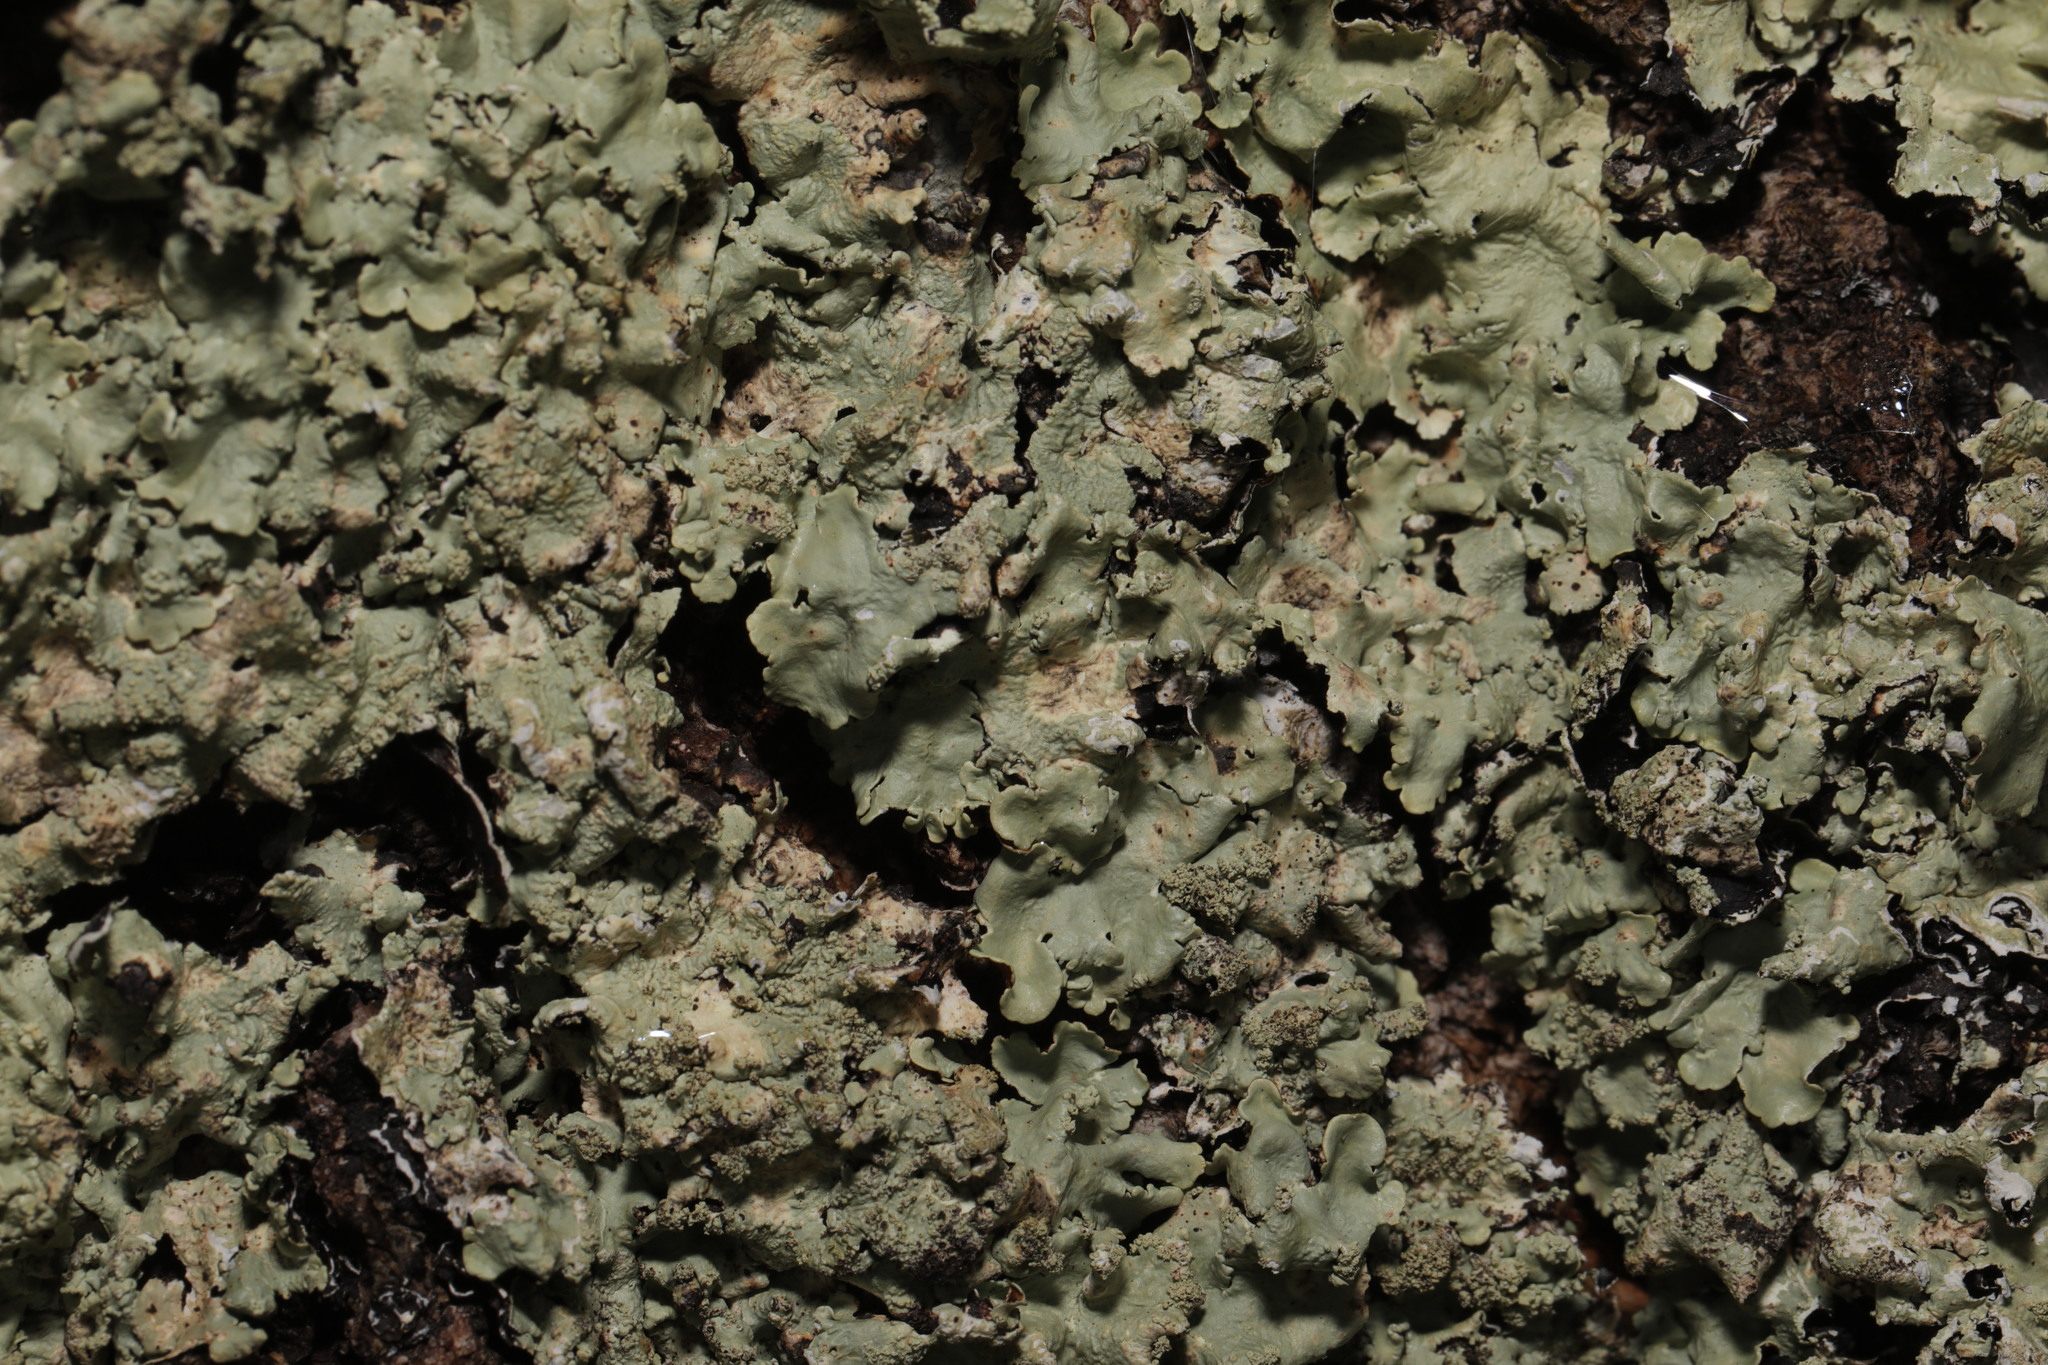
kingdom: Fungi
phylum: Ascomycota
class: Lecanoromycetes
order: Lecanorales
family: Parmeliaceae
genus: Flavoparmelia
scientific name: Flavoparmelia caperata
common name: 40-mile per hour lichen
